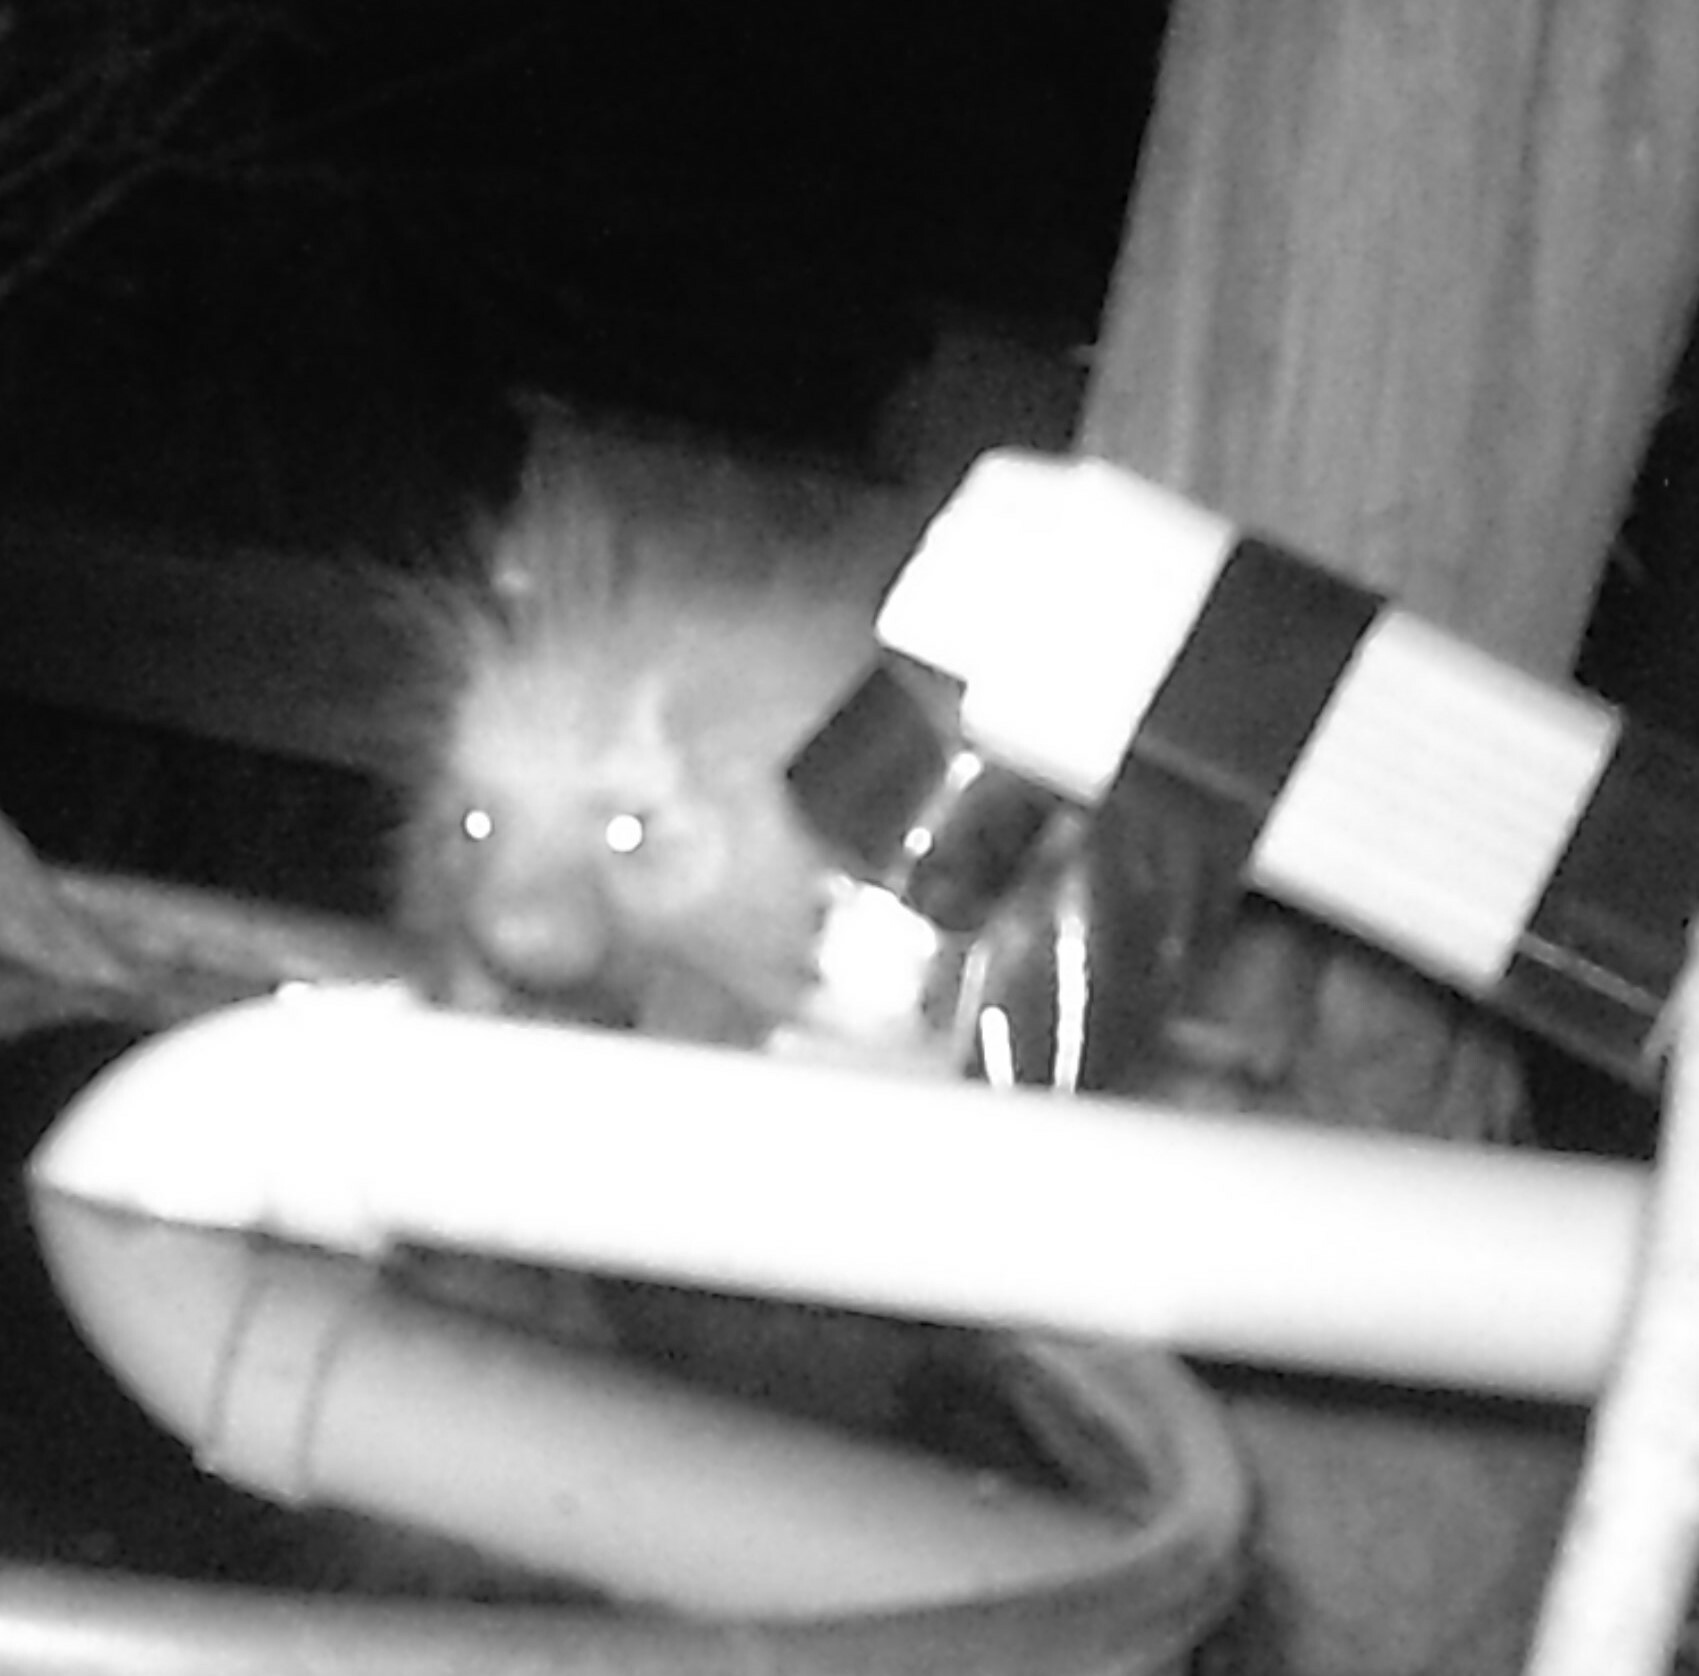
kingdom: Animalia
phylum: Chordata
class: Mammalia
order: Rodentia
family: Erethizontidae
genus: Erethizon
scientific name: Erethizon dorsatus
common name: North american porcupine
